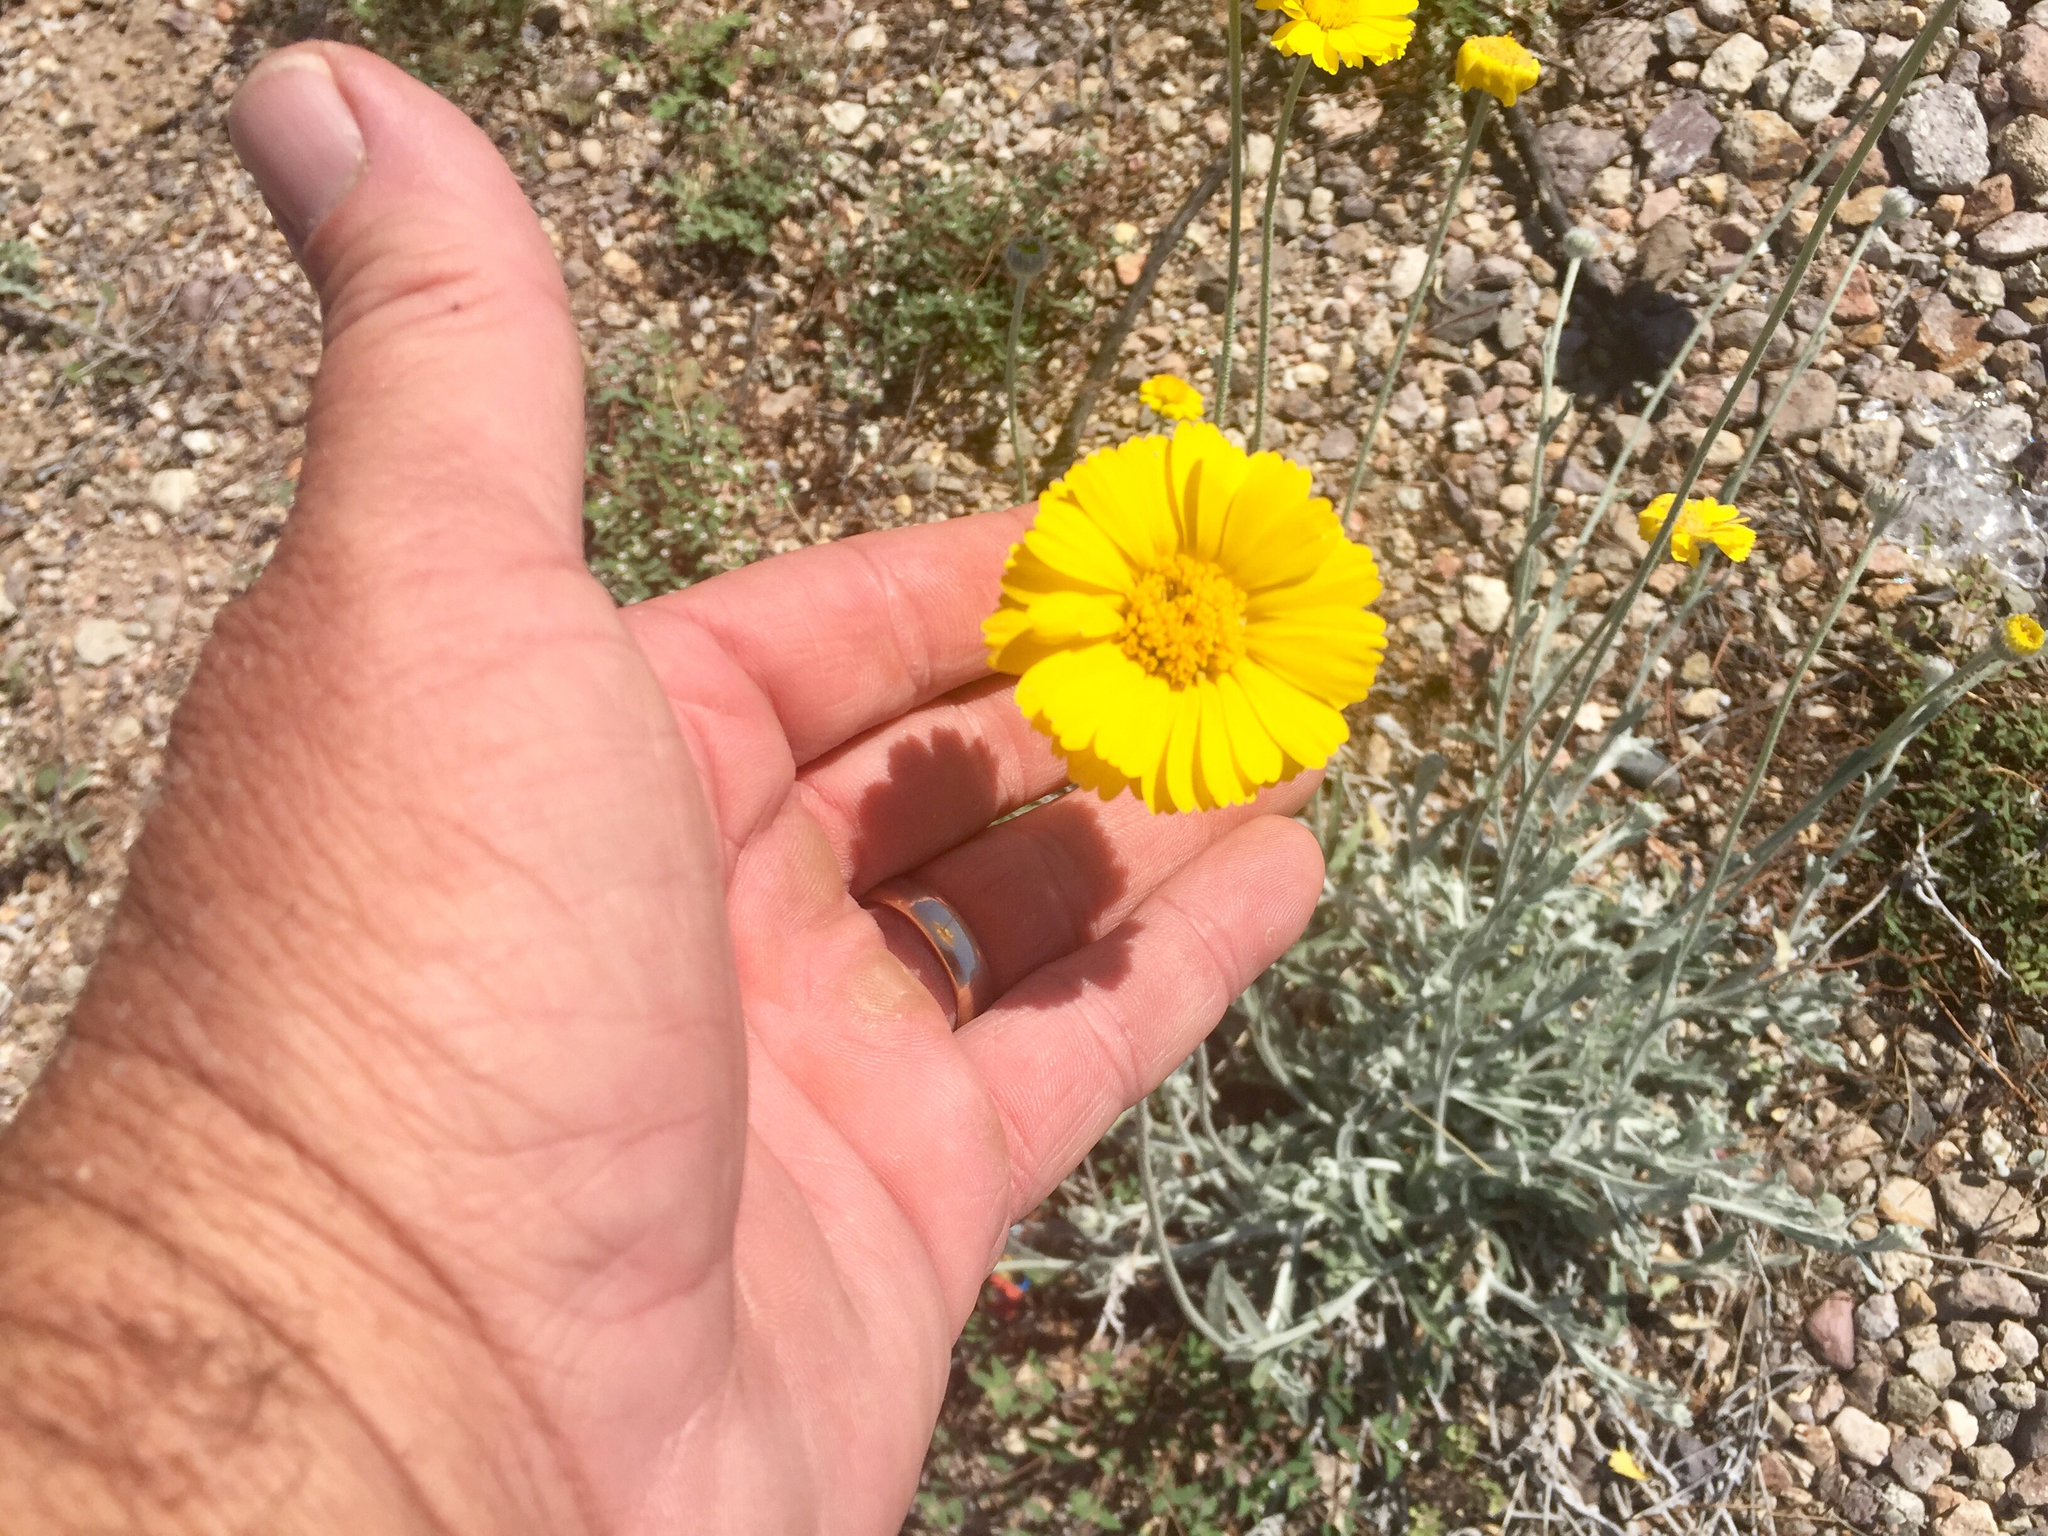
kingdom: Plantae
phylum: Tracheophyta
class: Magnoliopsida
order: Asterales
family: Asteraceae
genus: Baileya
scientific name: Baileya multiradiata
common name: Desert-marigold
